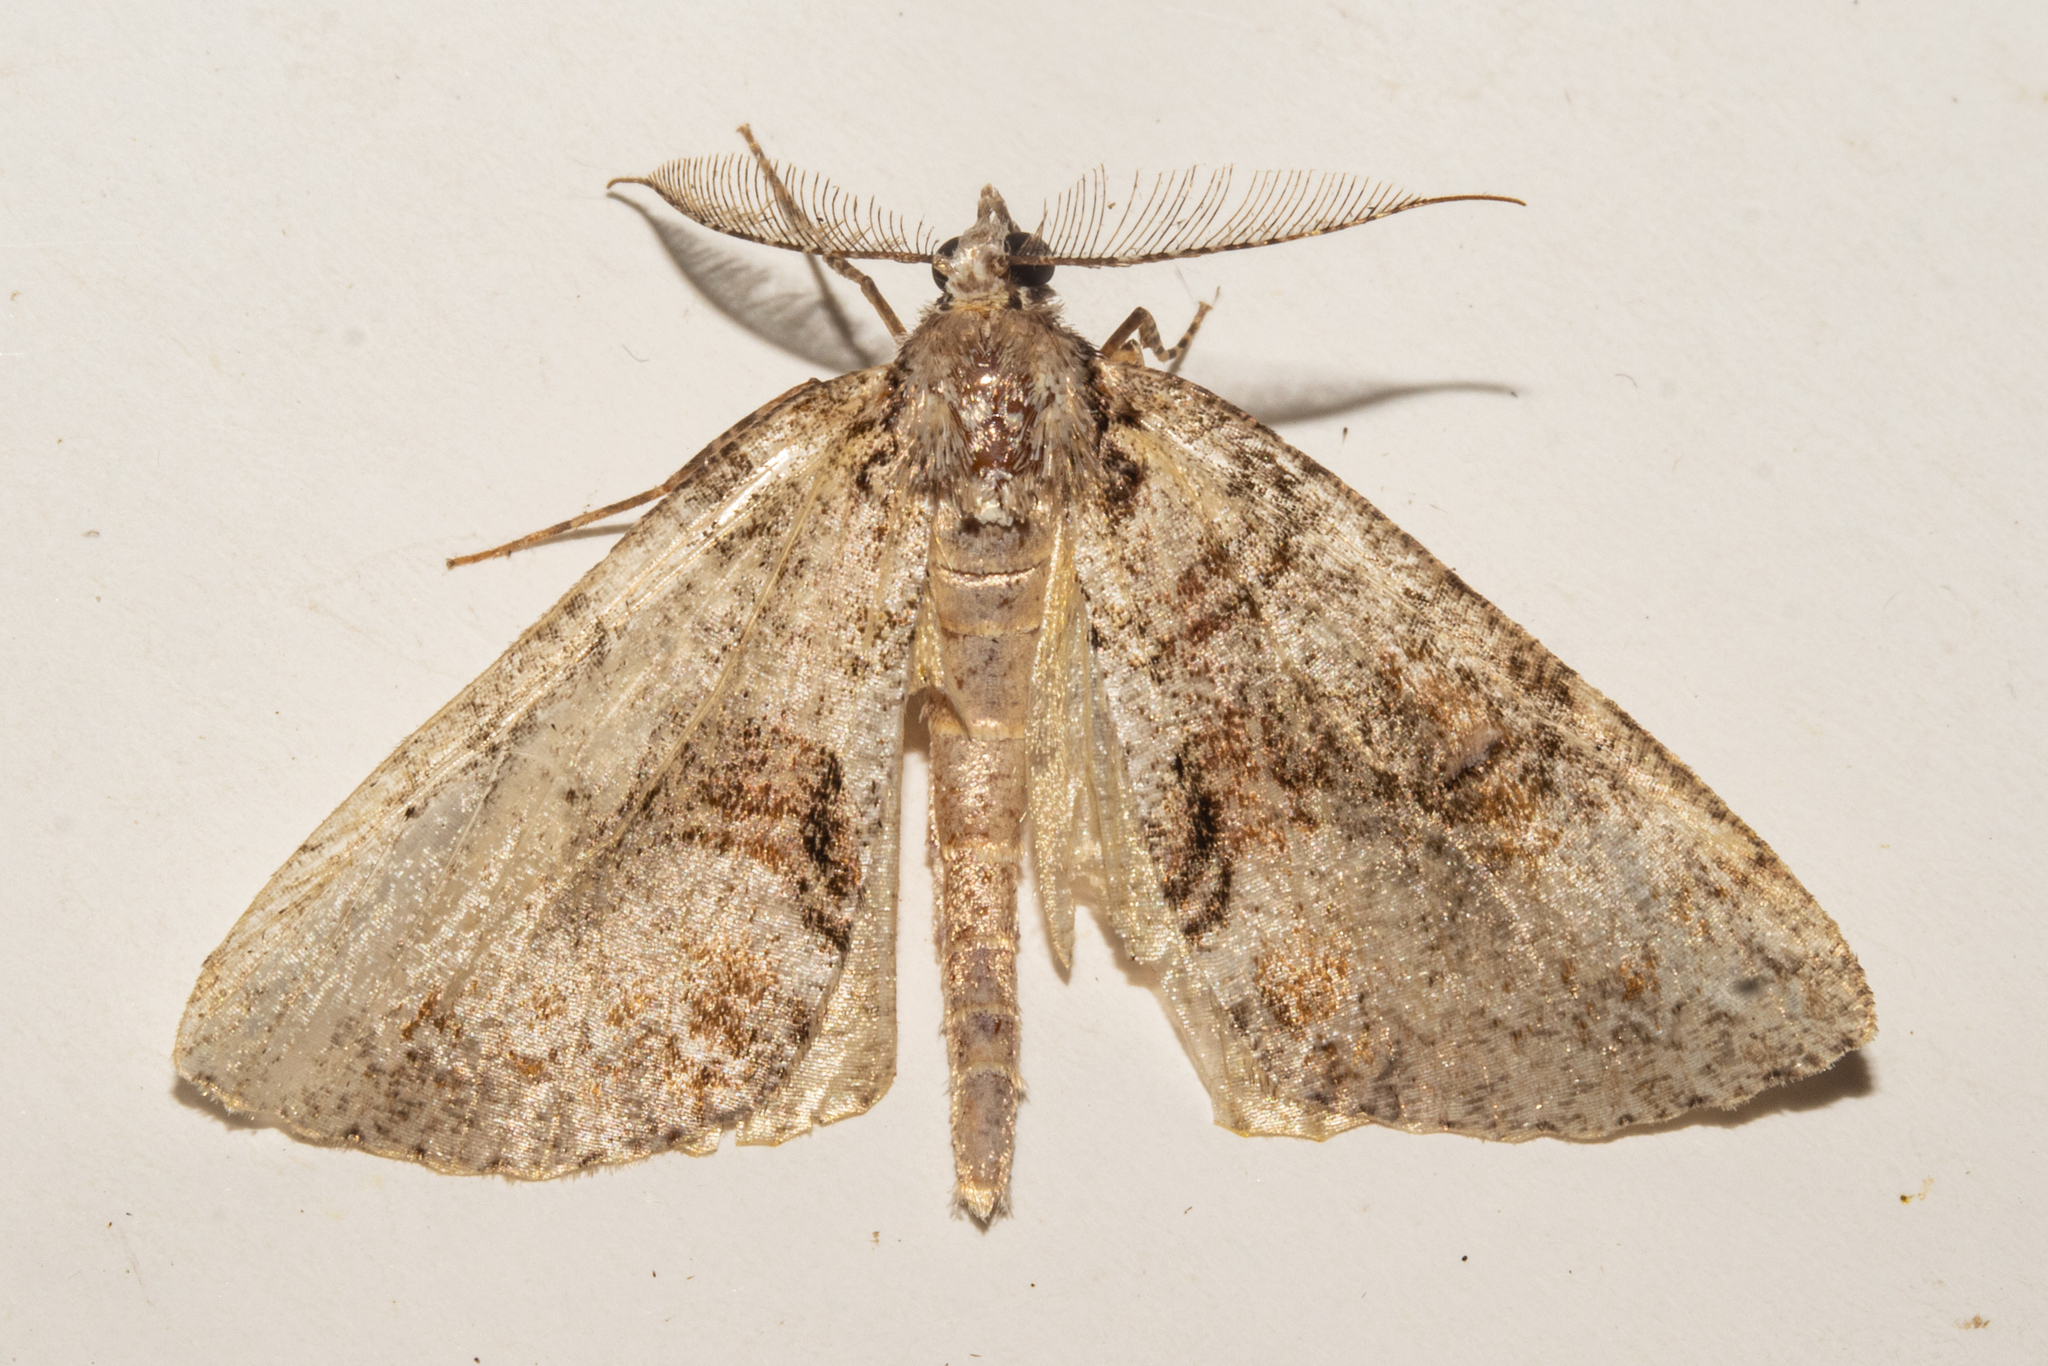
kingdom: Animalia
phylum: Arthropoda
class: Insecta
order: Lepidoptera
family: Geometridae
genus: Pseudocoremia
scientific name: Pseudocoremia suavis
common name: Common forest looper
